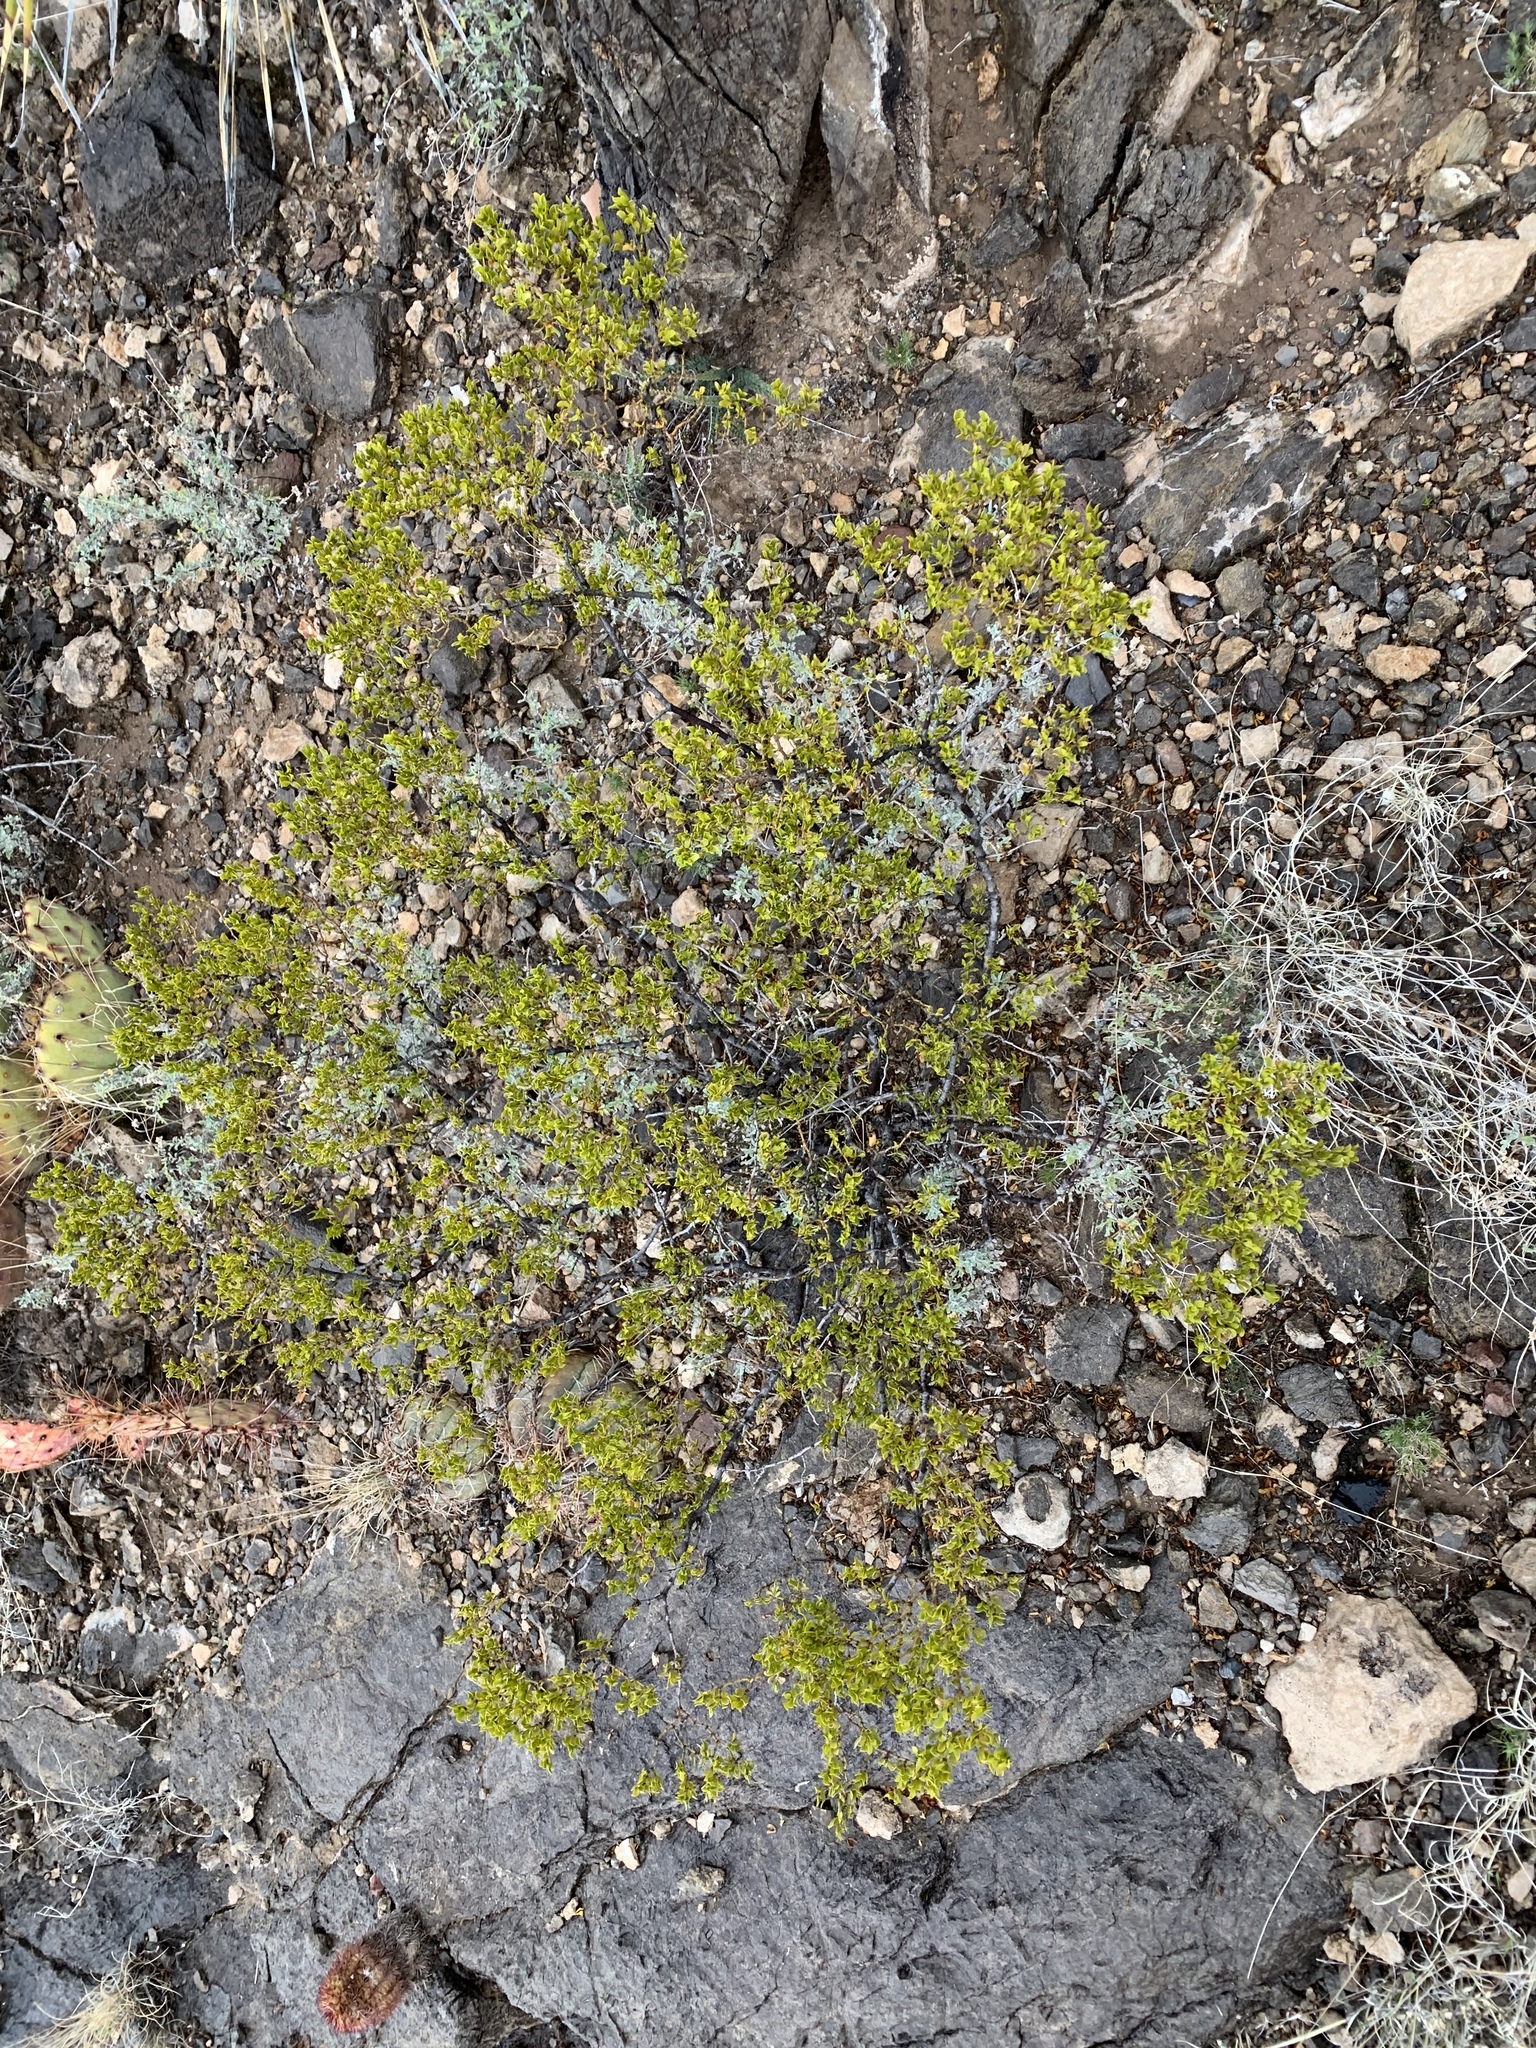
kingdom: Plantae
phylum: Tracheophyta
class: Magnoliopsida
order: Zygophyllales
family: Zygophyllaceae
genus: Larrea
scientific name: Larrea tridentata
